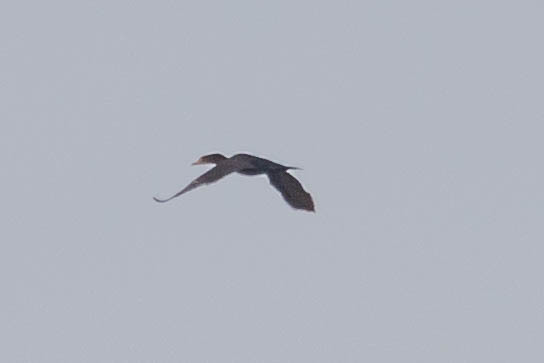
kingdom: Animalia
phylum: Chordata
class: Aves
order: Suliformes
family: Phalacrocoracidae
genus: Phalacrocorax
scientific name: Phalacrocorax auritus
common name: Double-crested cormorant
